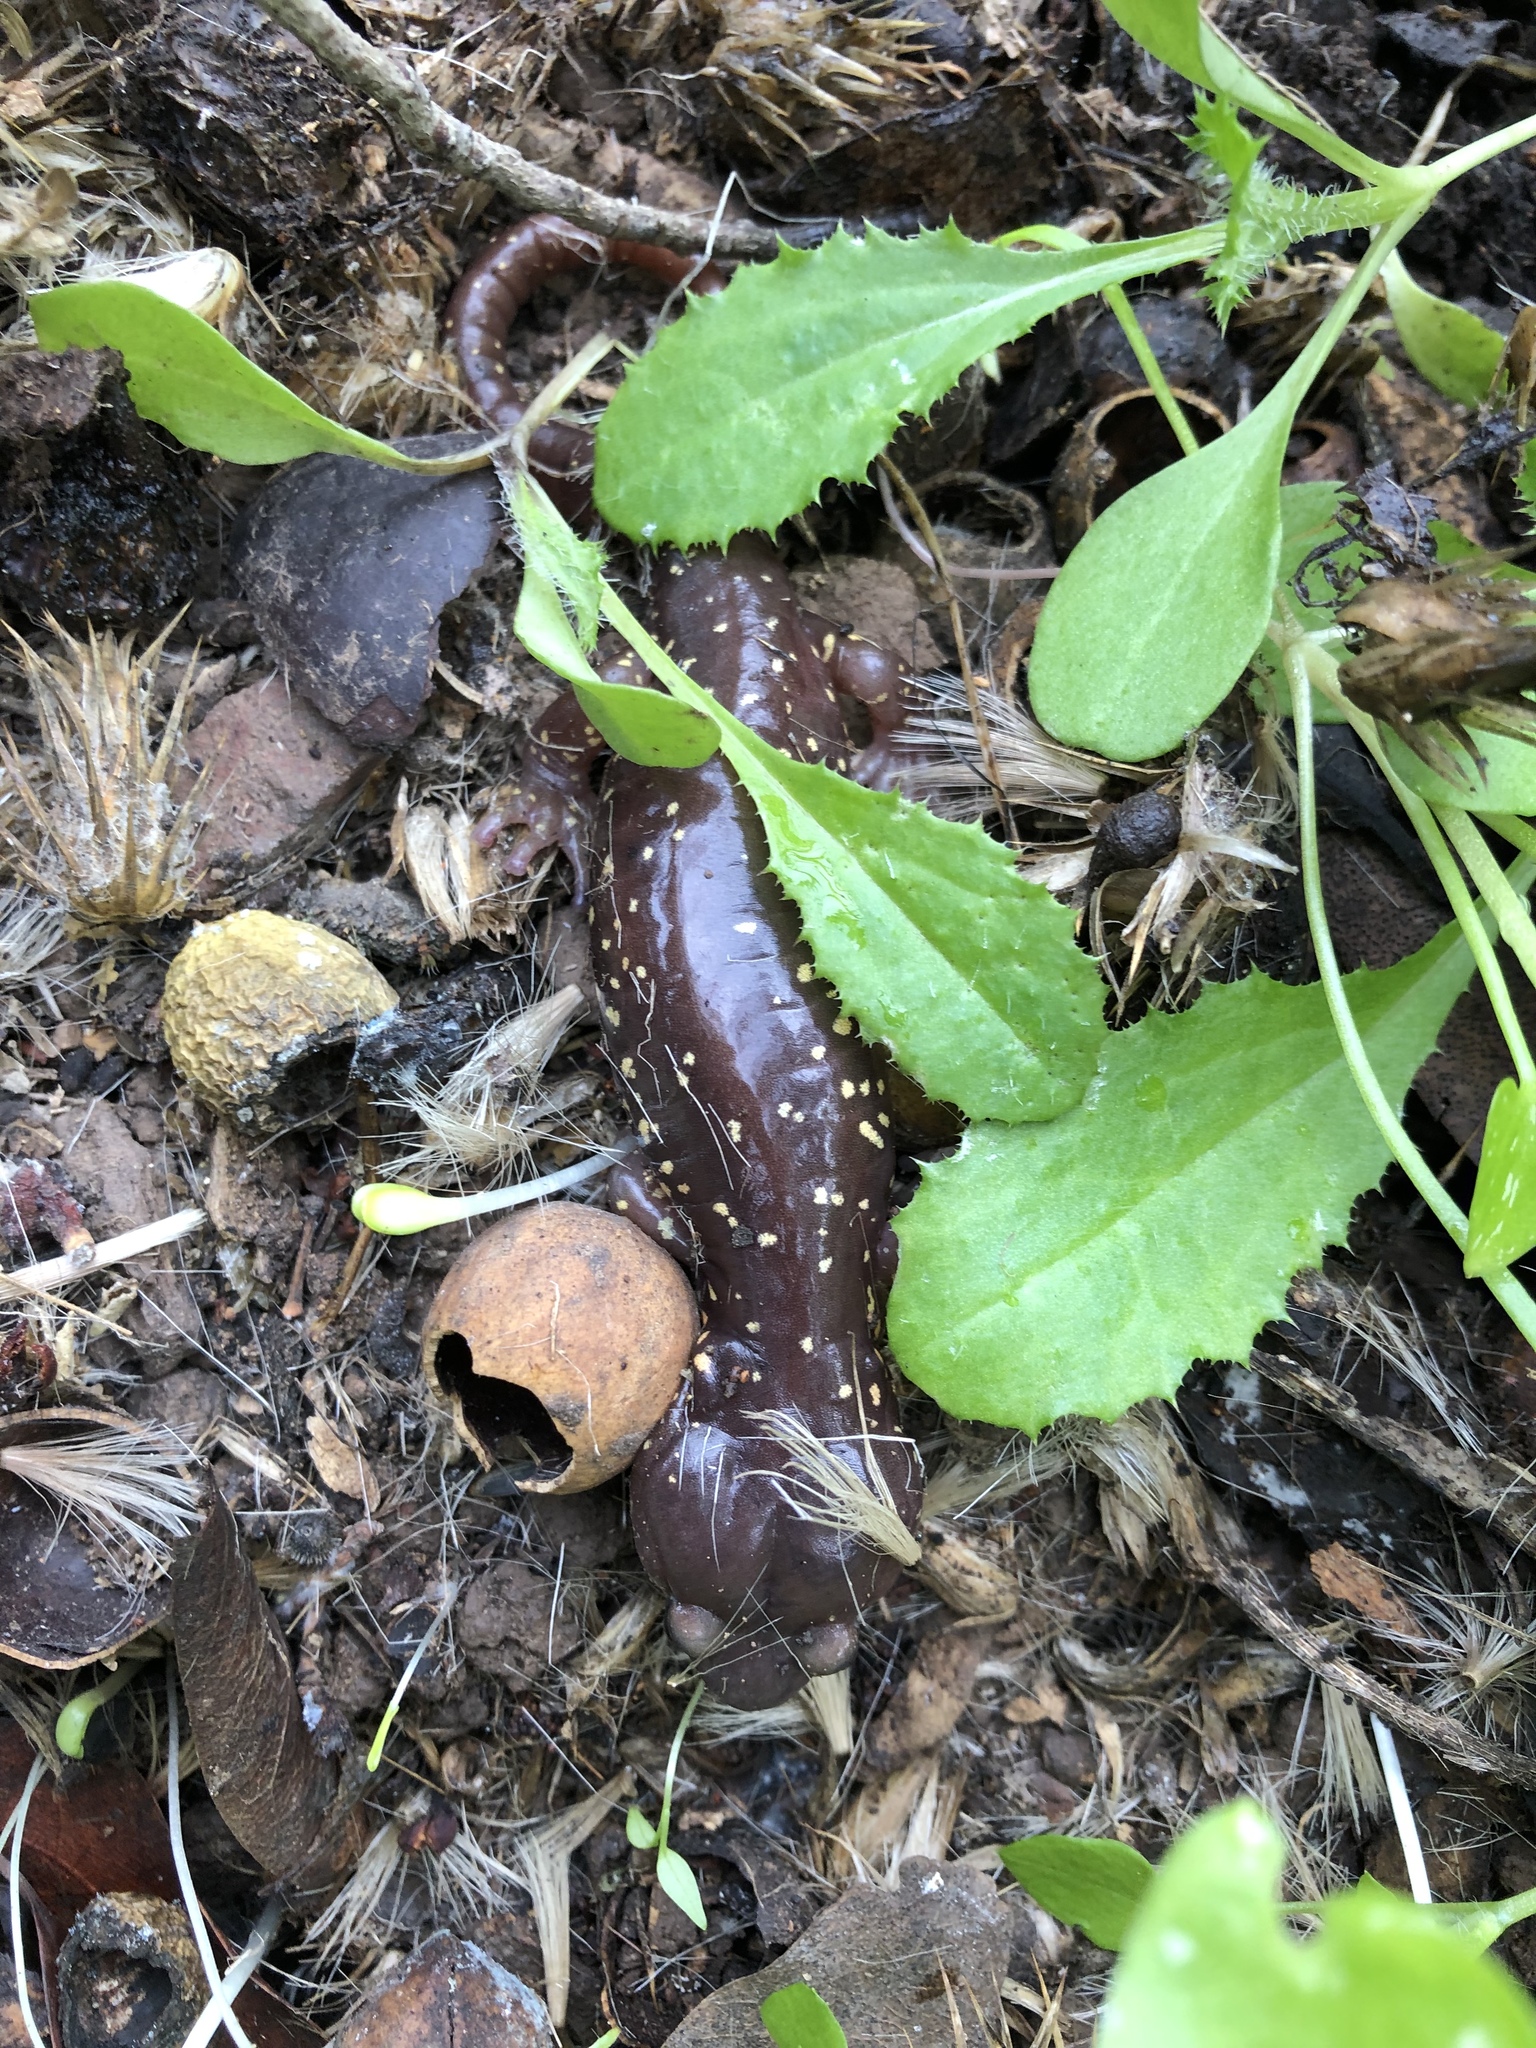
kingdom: Animalia
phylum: Chordata
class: Amphibia
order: Caudata
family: Plethodontidae
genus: Aneides
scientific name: Aneides lugubris
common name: Arboreal salamander
